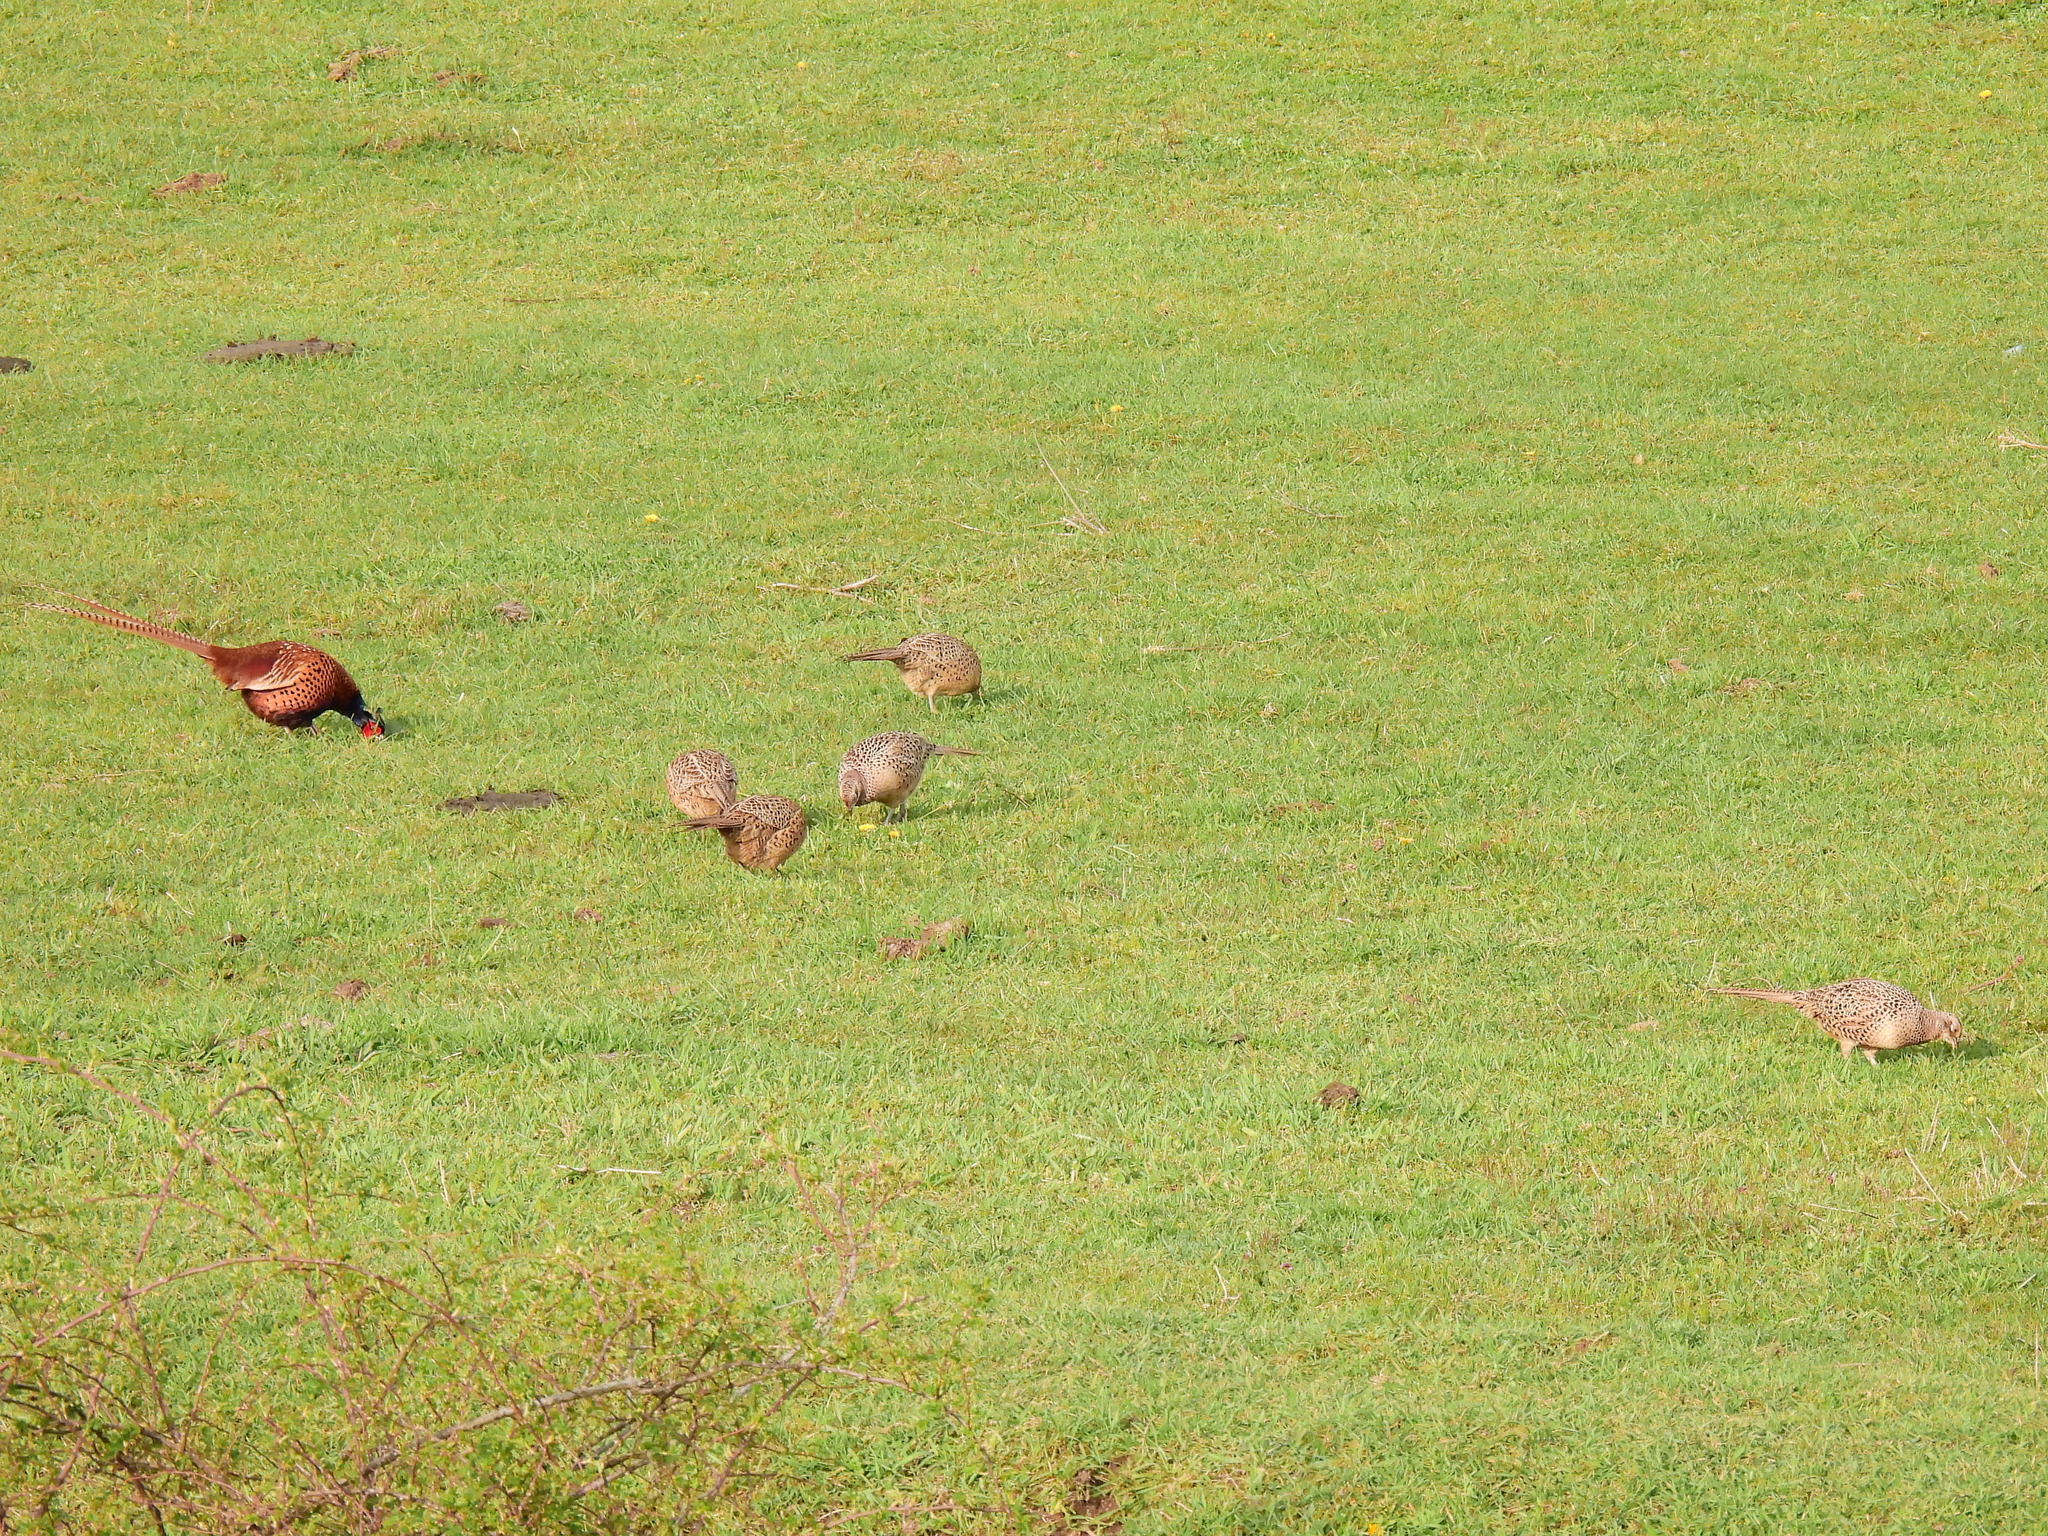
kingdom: Animalia
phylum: Chordata
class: Aves
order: Galliformes
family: Phasianidae
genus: Phasianus
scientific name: Phasianus colchicus
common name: Common pheasant
